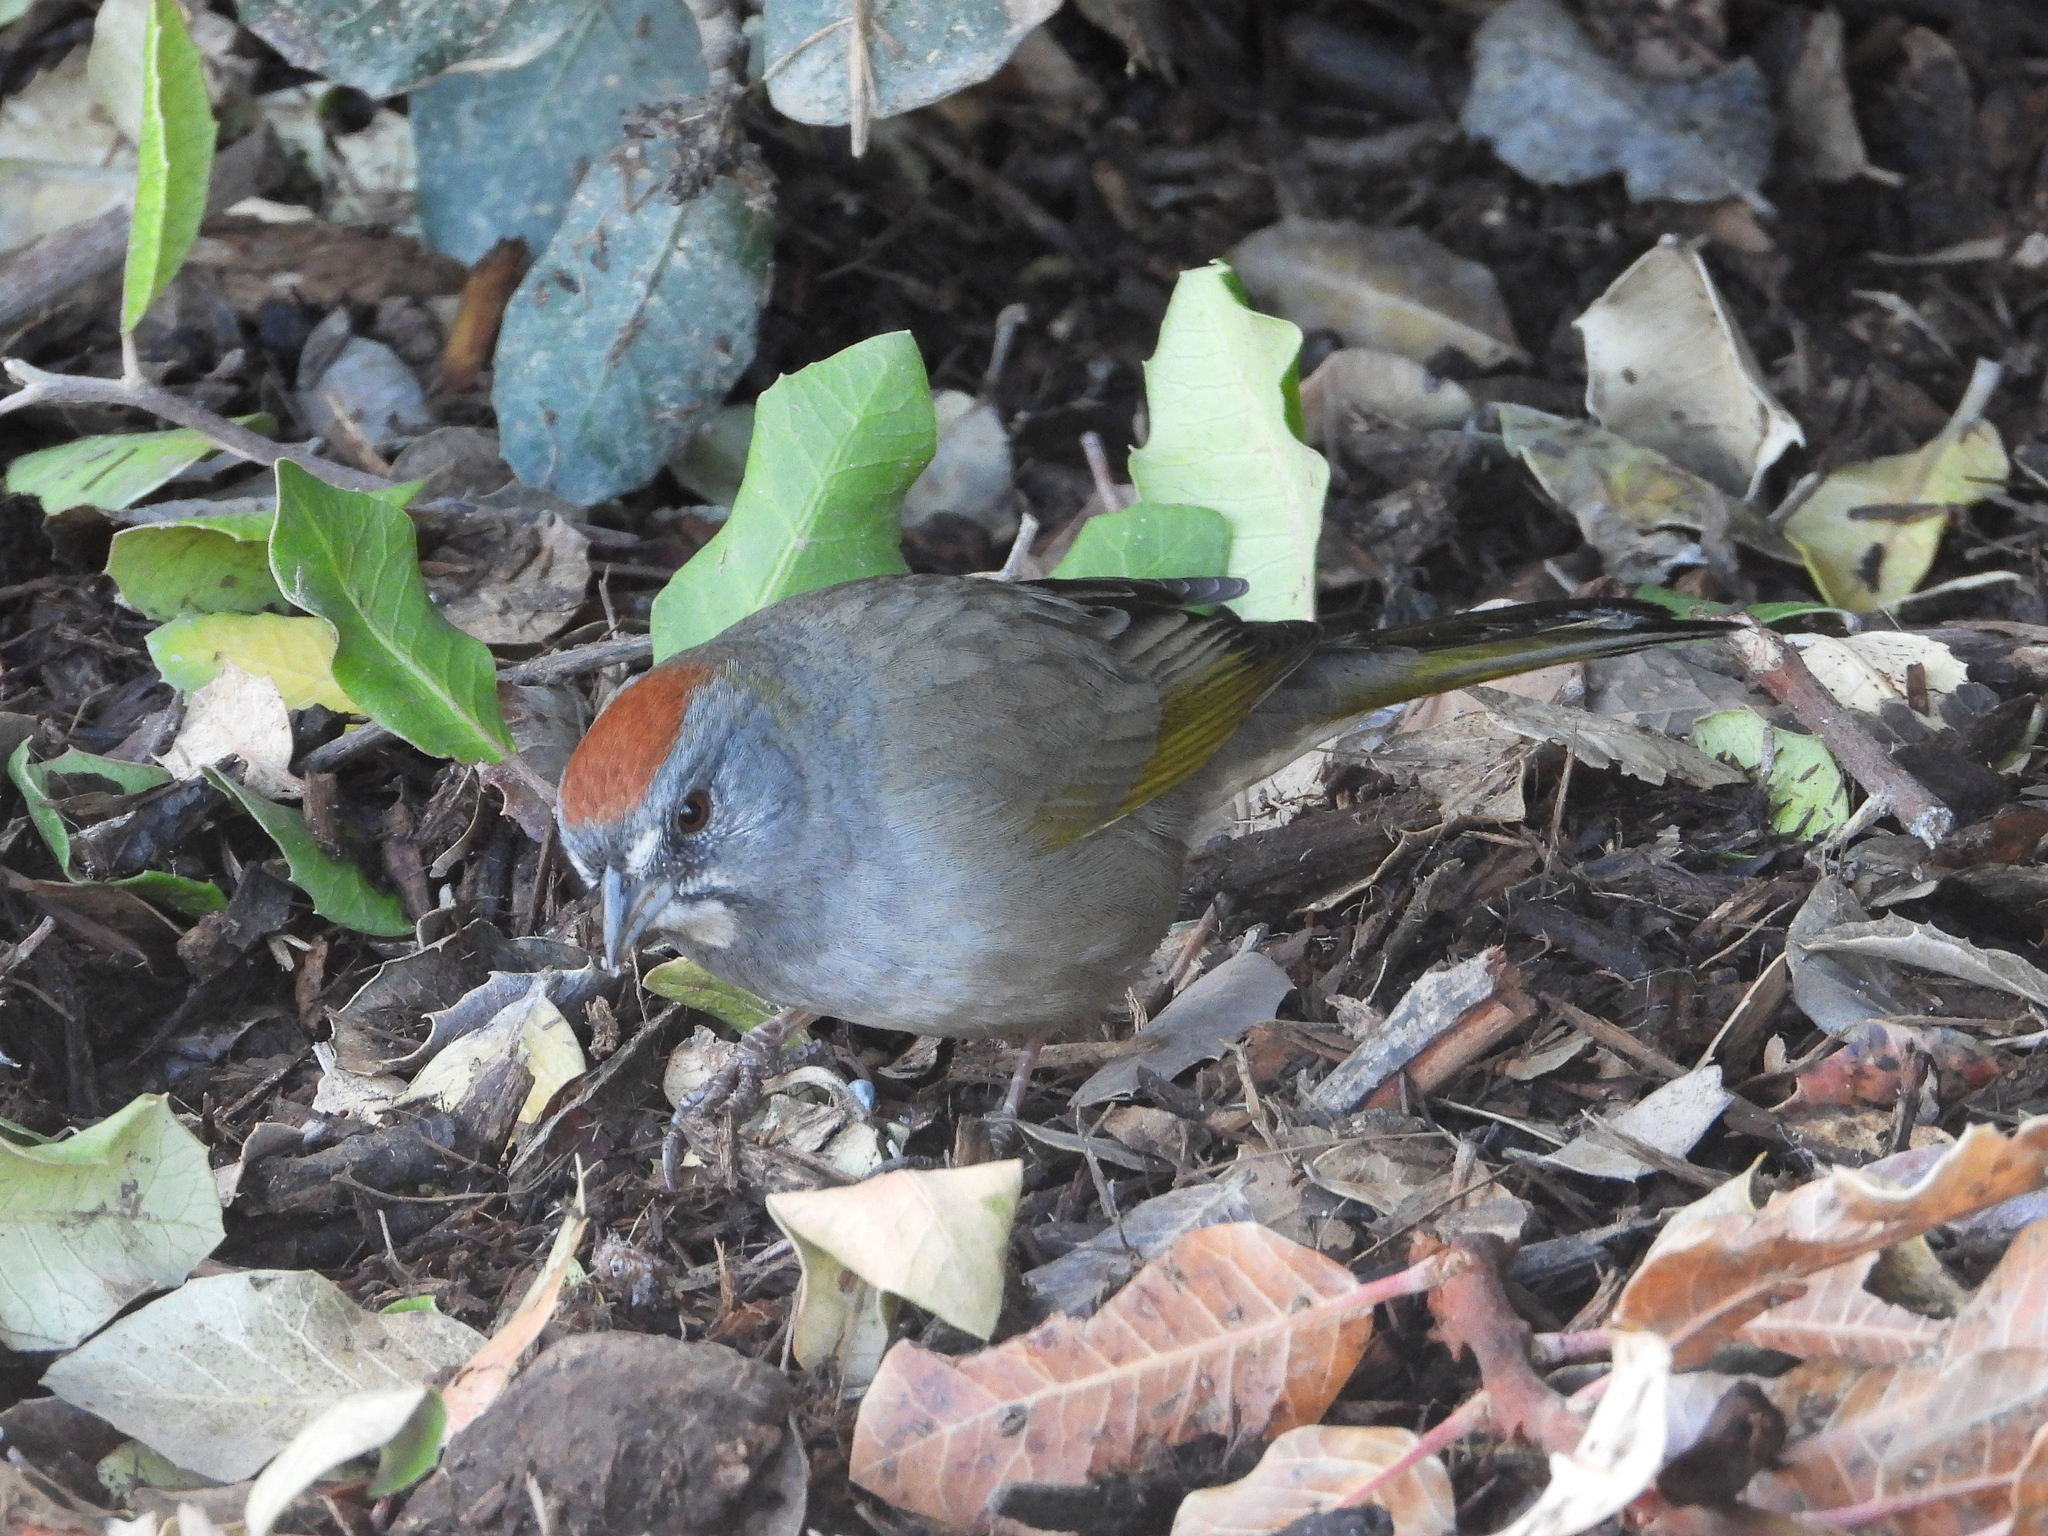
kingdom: Animalia
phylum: Chordata
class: Aves
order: Passeriformes
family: Passerellidae
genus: Pipilo
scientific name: Pipilo chlorurus
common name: Green-tailed towhee
